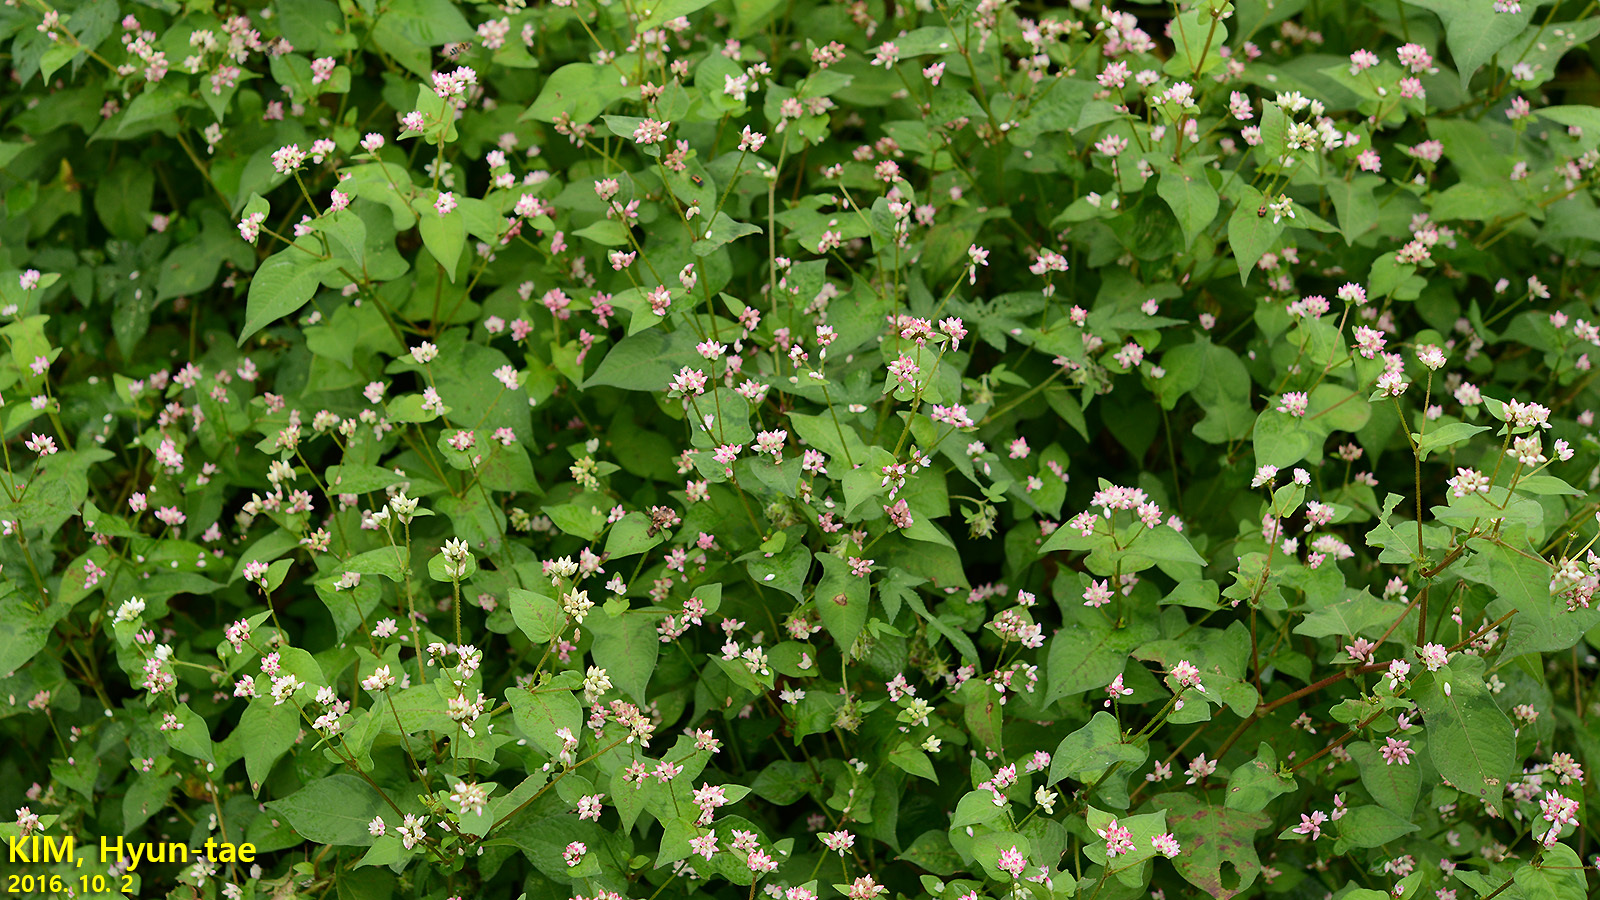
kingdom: Plantae
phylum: Tracheophyta
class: Magnoliopsida
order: Caryophyllales
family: Polygonaceae
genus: Persicaria
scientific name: Persicaria thunbergii
